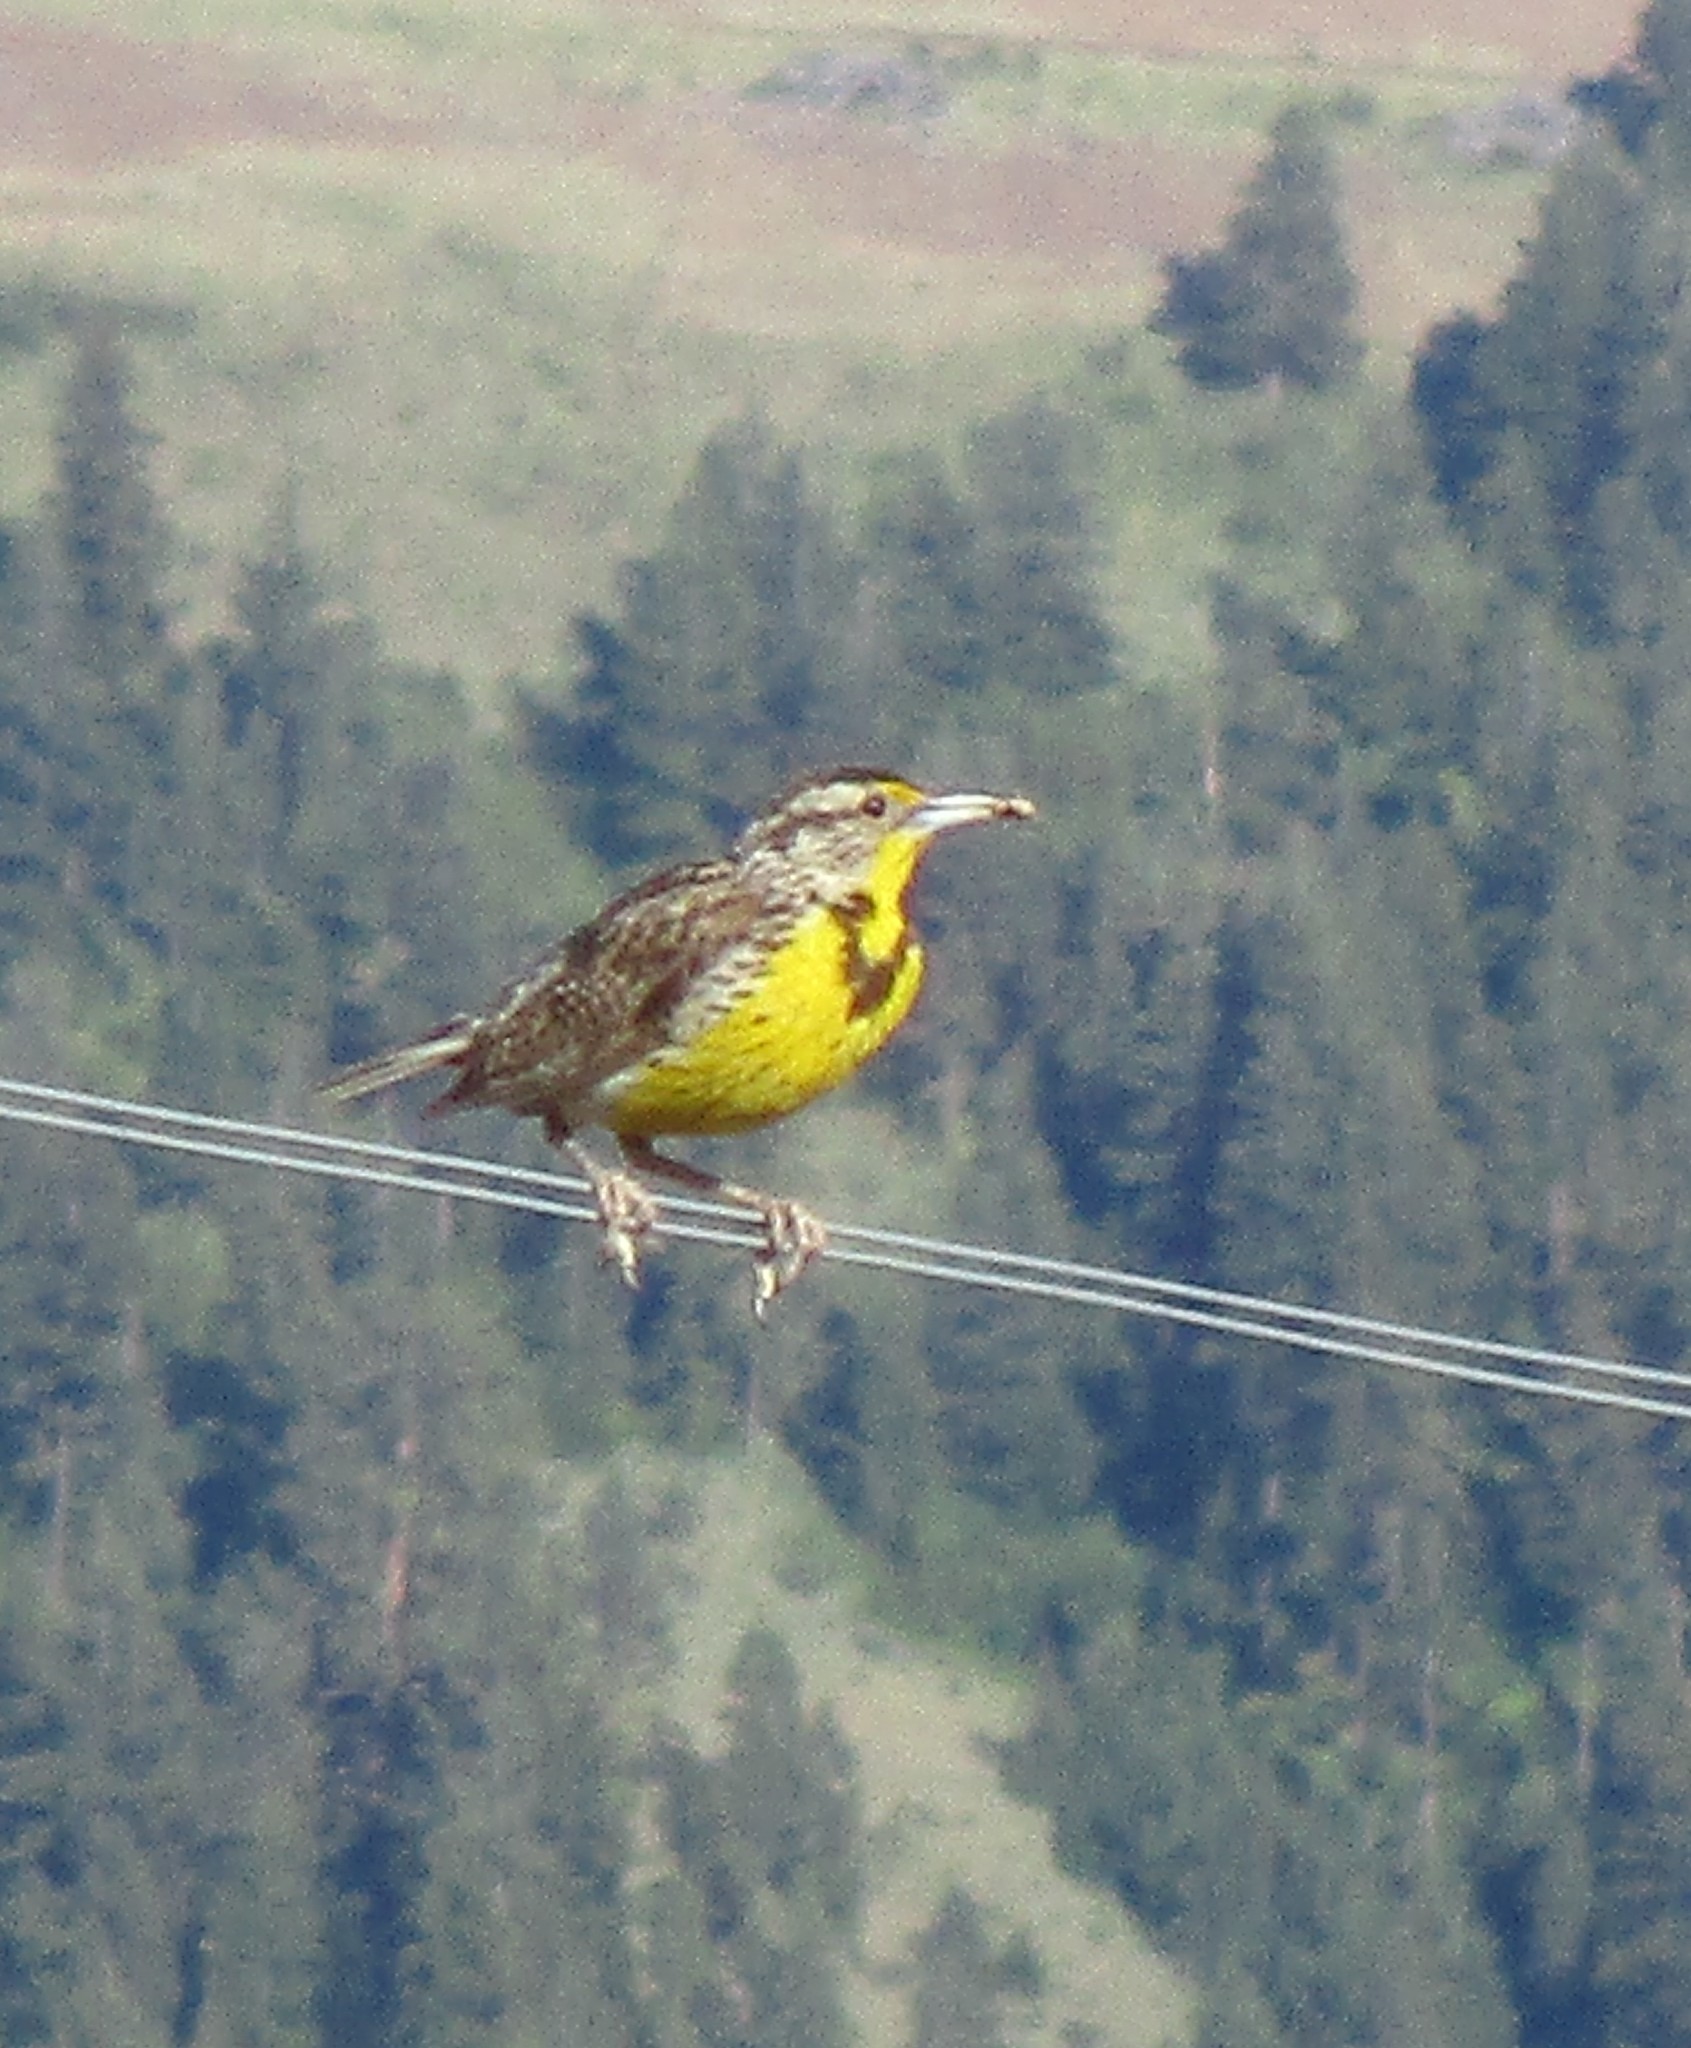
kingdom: Animalia
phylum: Chordata
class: Aves
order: Passeriformes
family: Icteridae
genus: Sturnella
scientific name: Sturnella neglecta
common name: Western meadowlark
